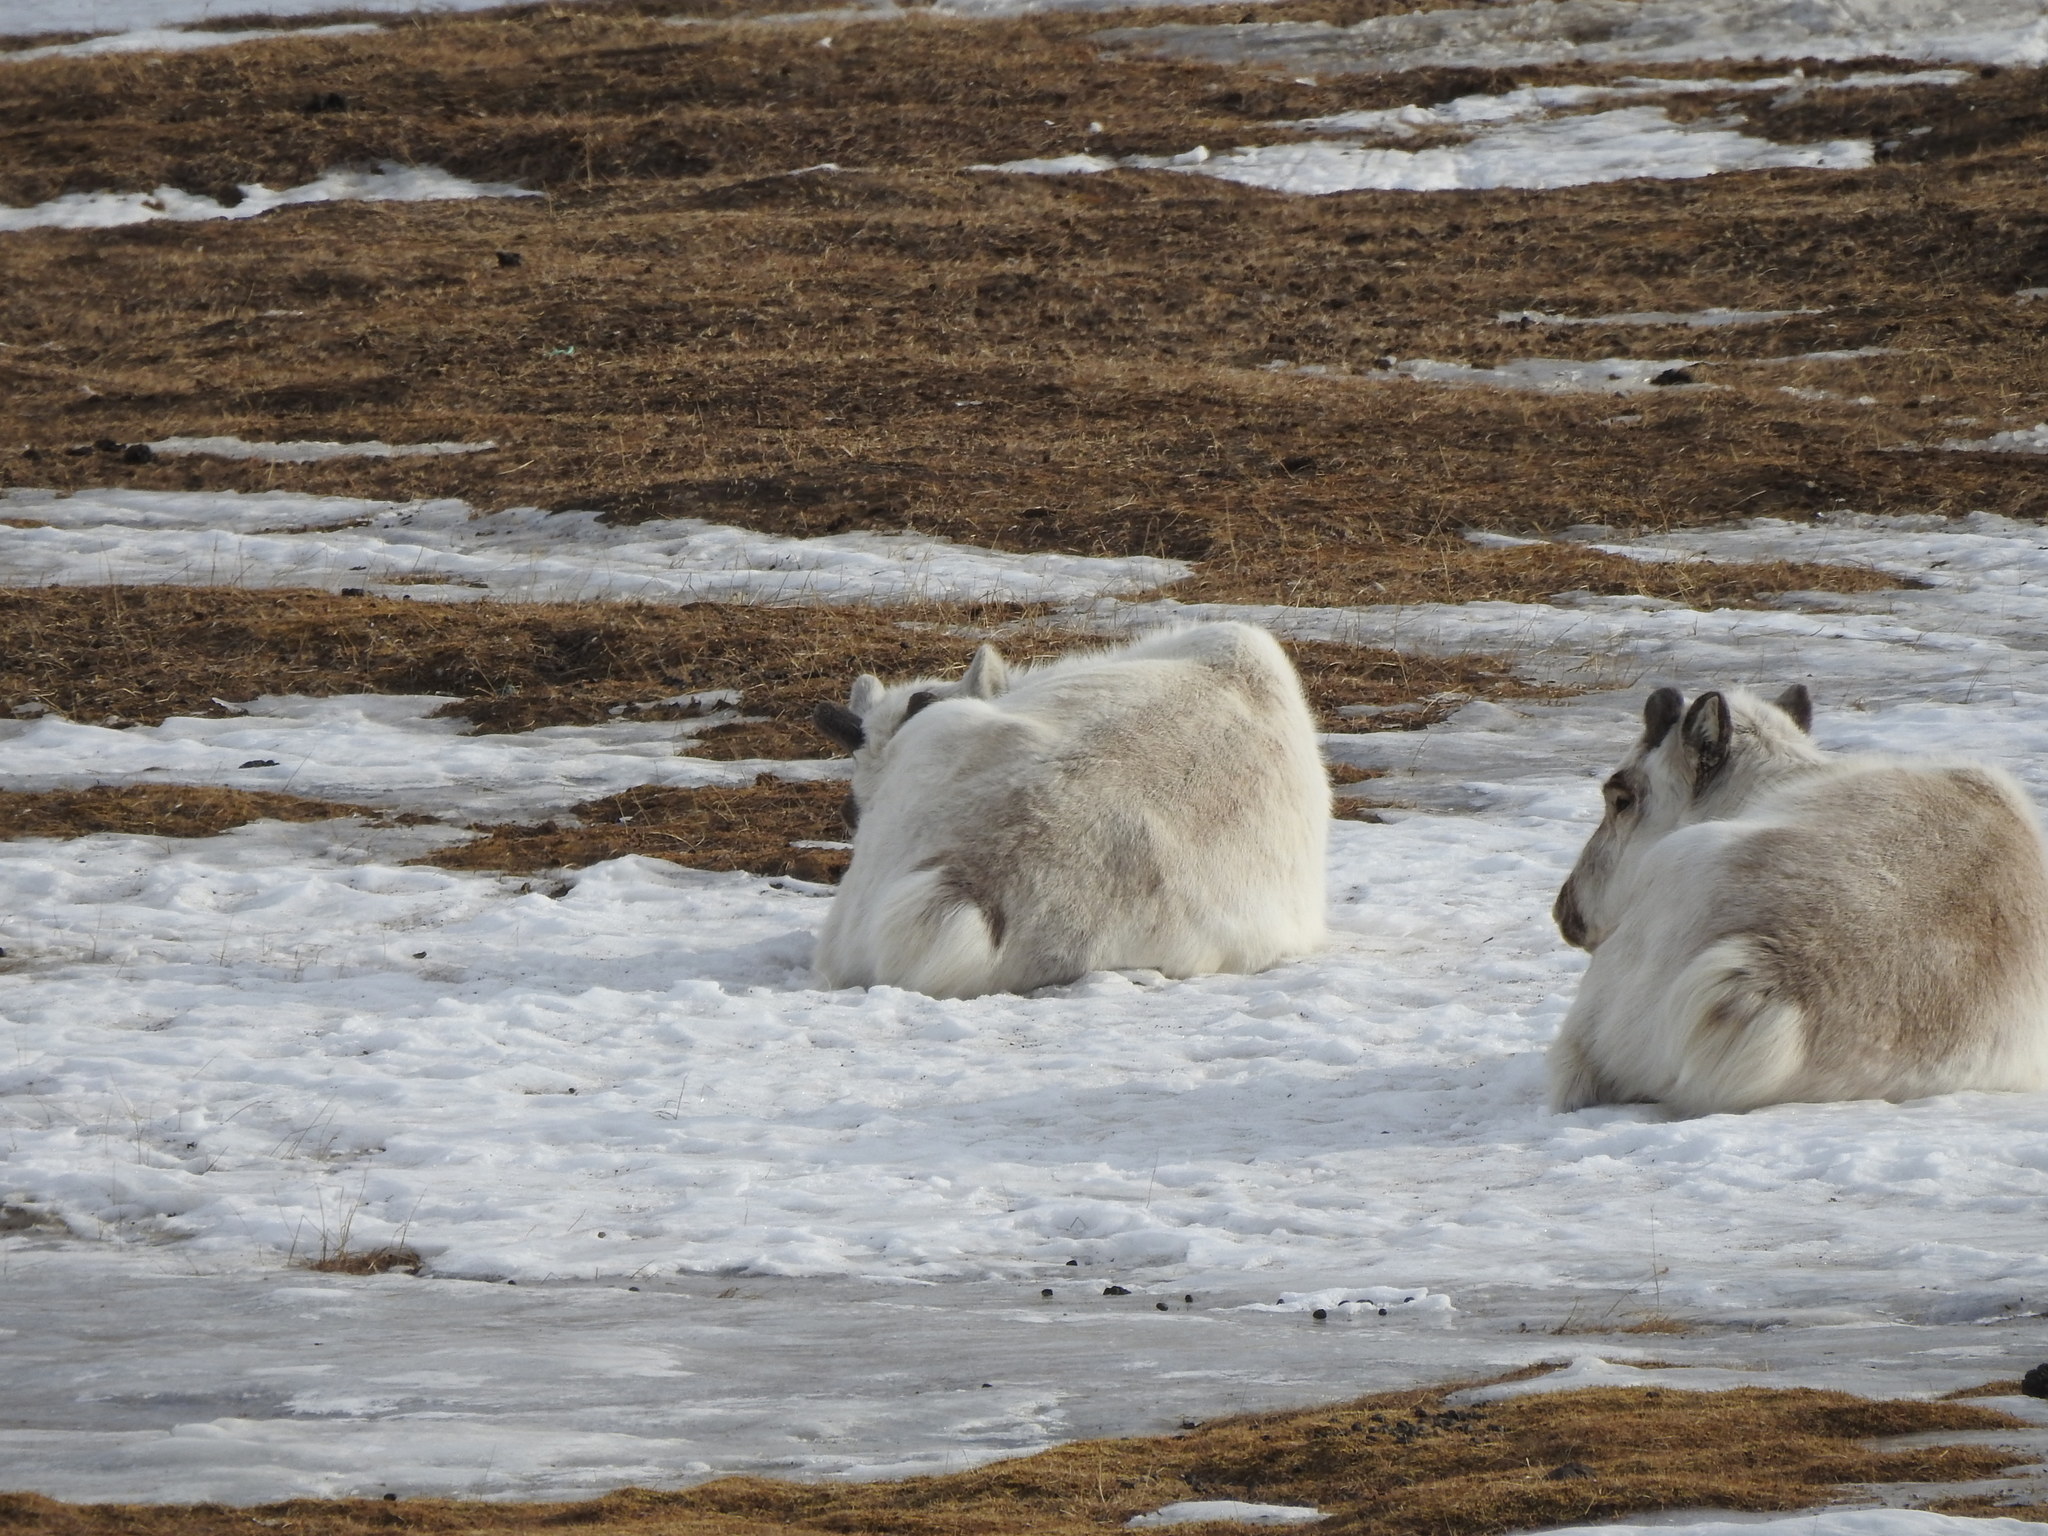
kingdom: Animalia
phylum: Chordata
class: Mammalia
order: Artiodactyla
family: Cervidae
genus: Rangifer
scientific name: Rangifer tarandus
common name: Reindeer
